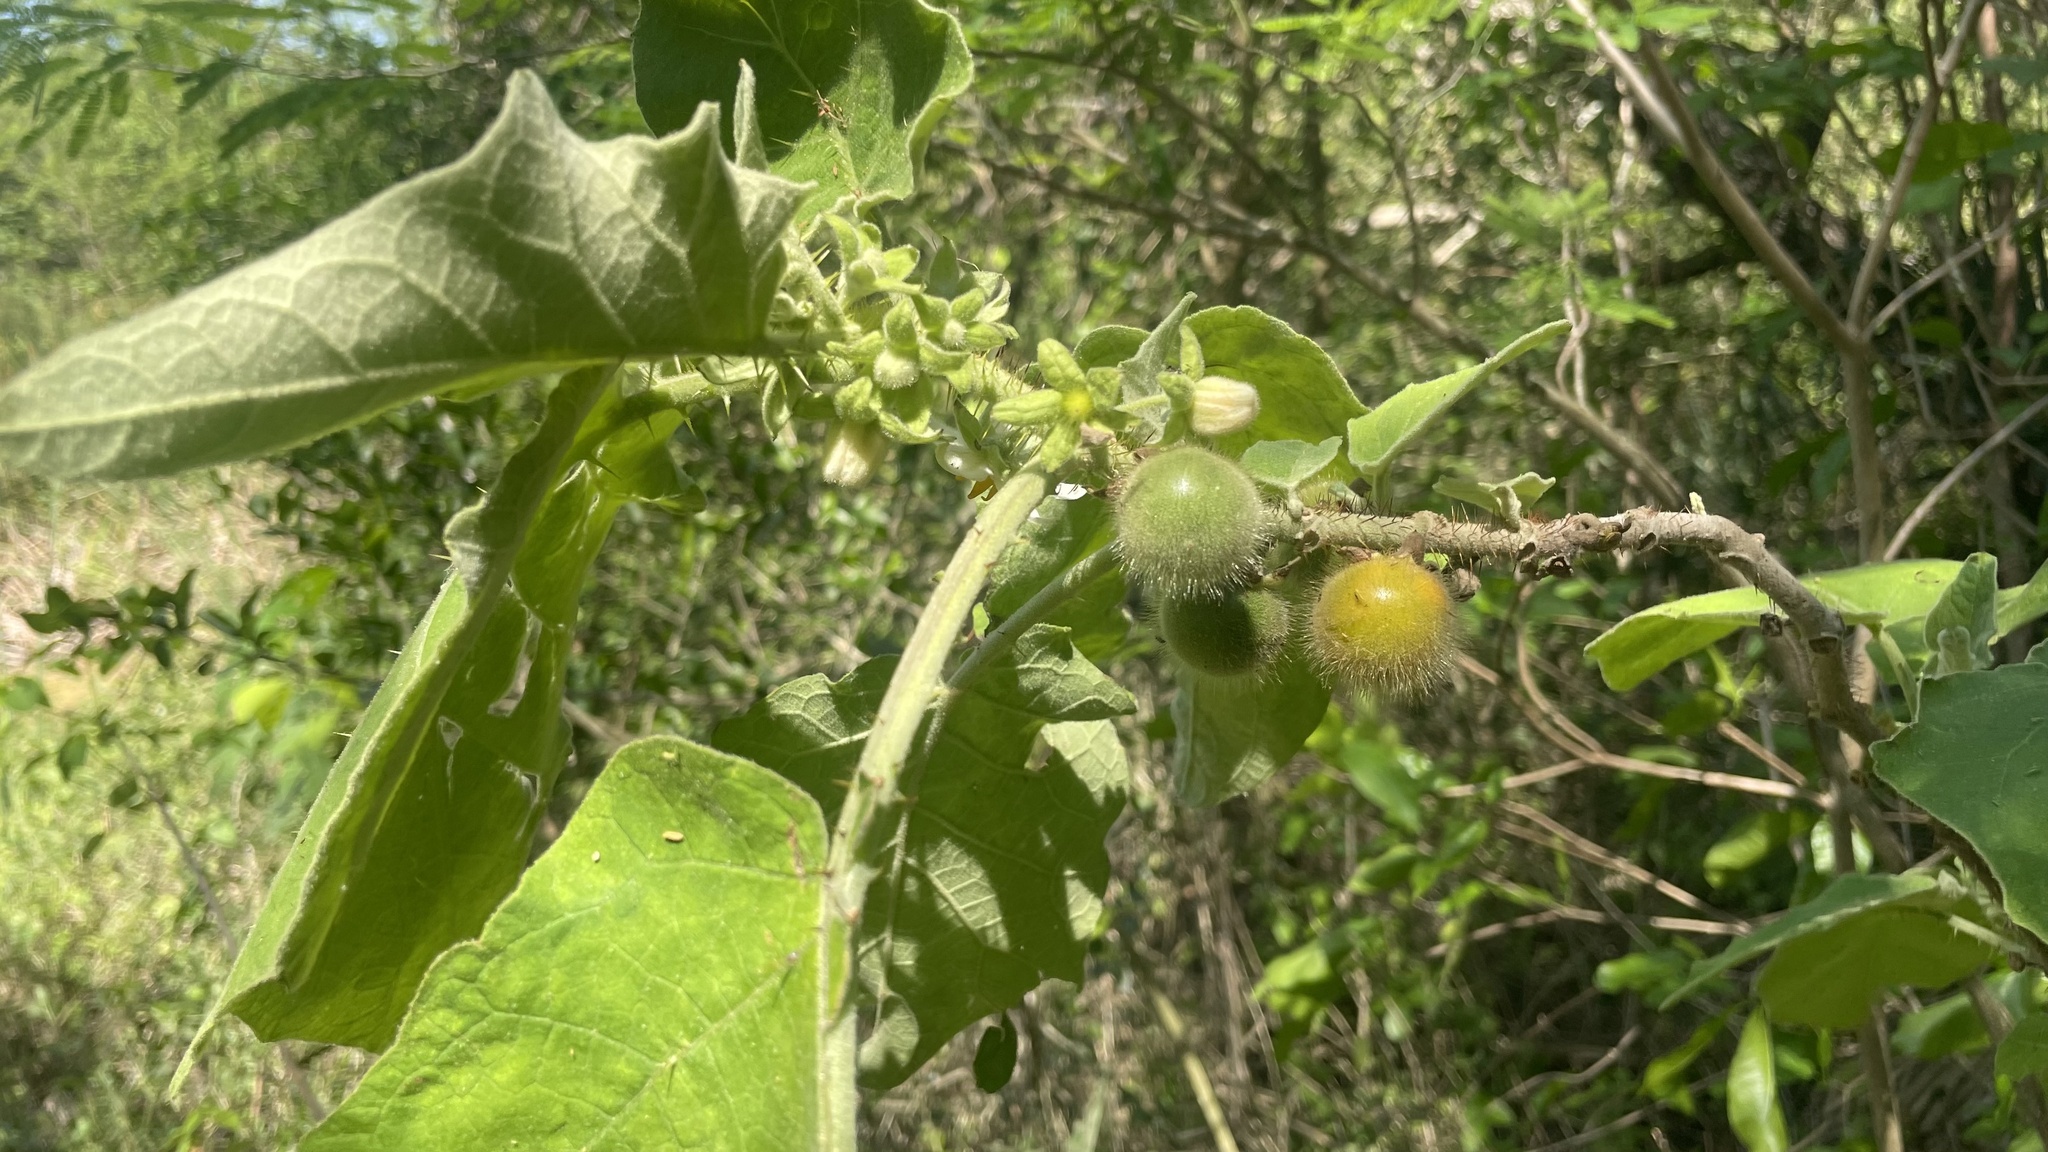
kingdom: Plantae
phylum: Tracheophyta
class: Magnoliopsida
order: Solanales
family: Solanaceae
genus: Solanum
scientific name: Solanum hirtum
